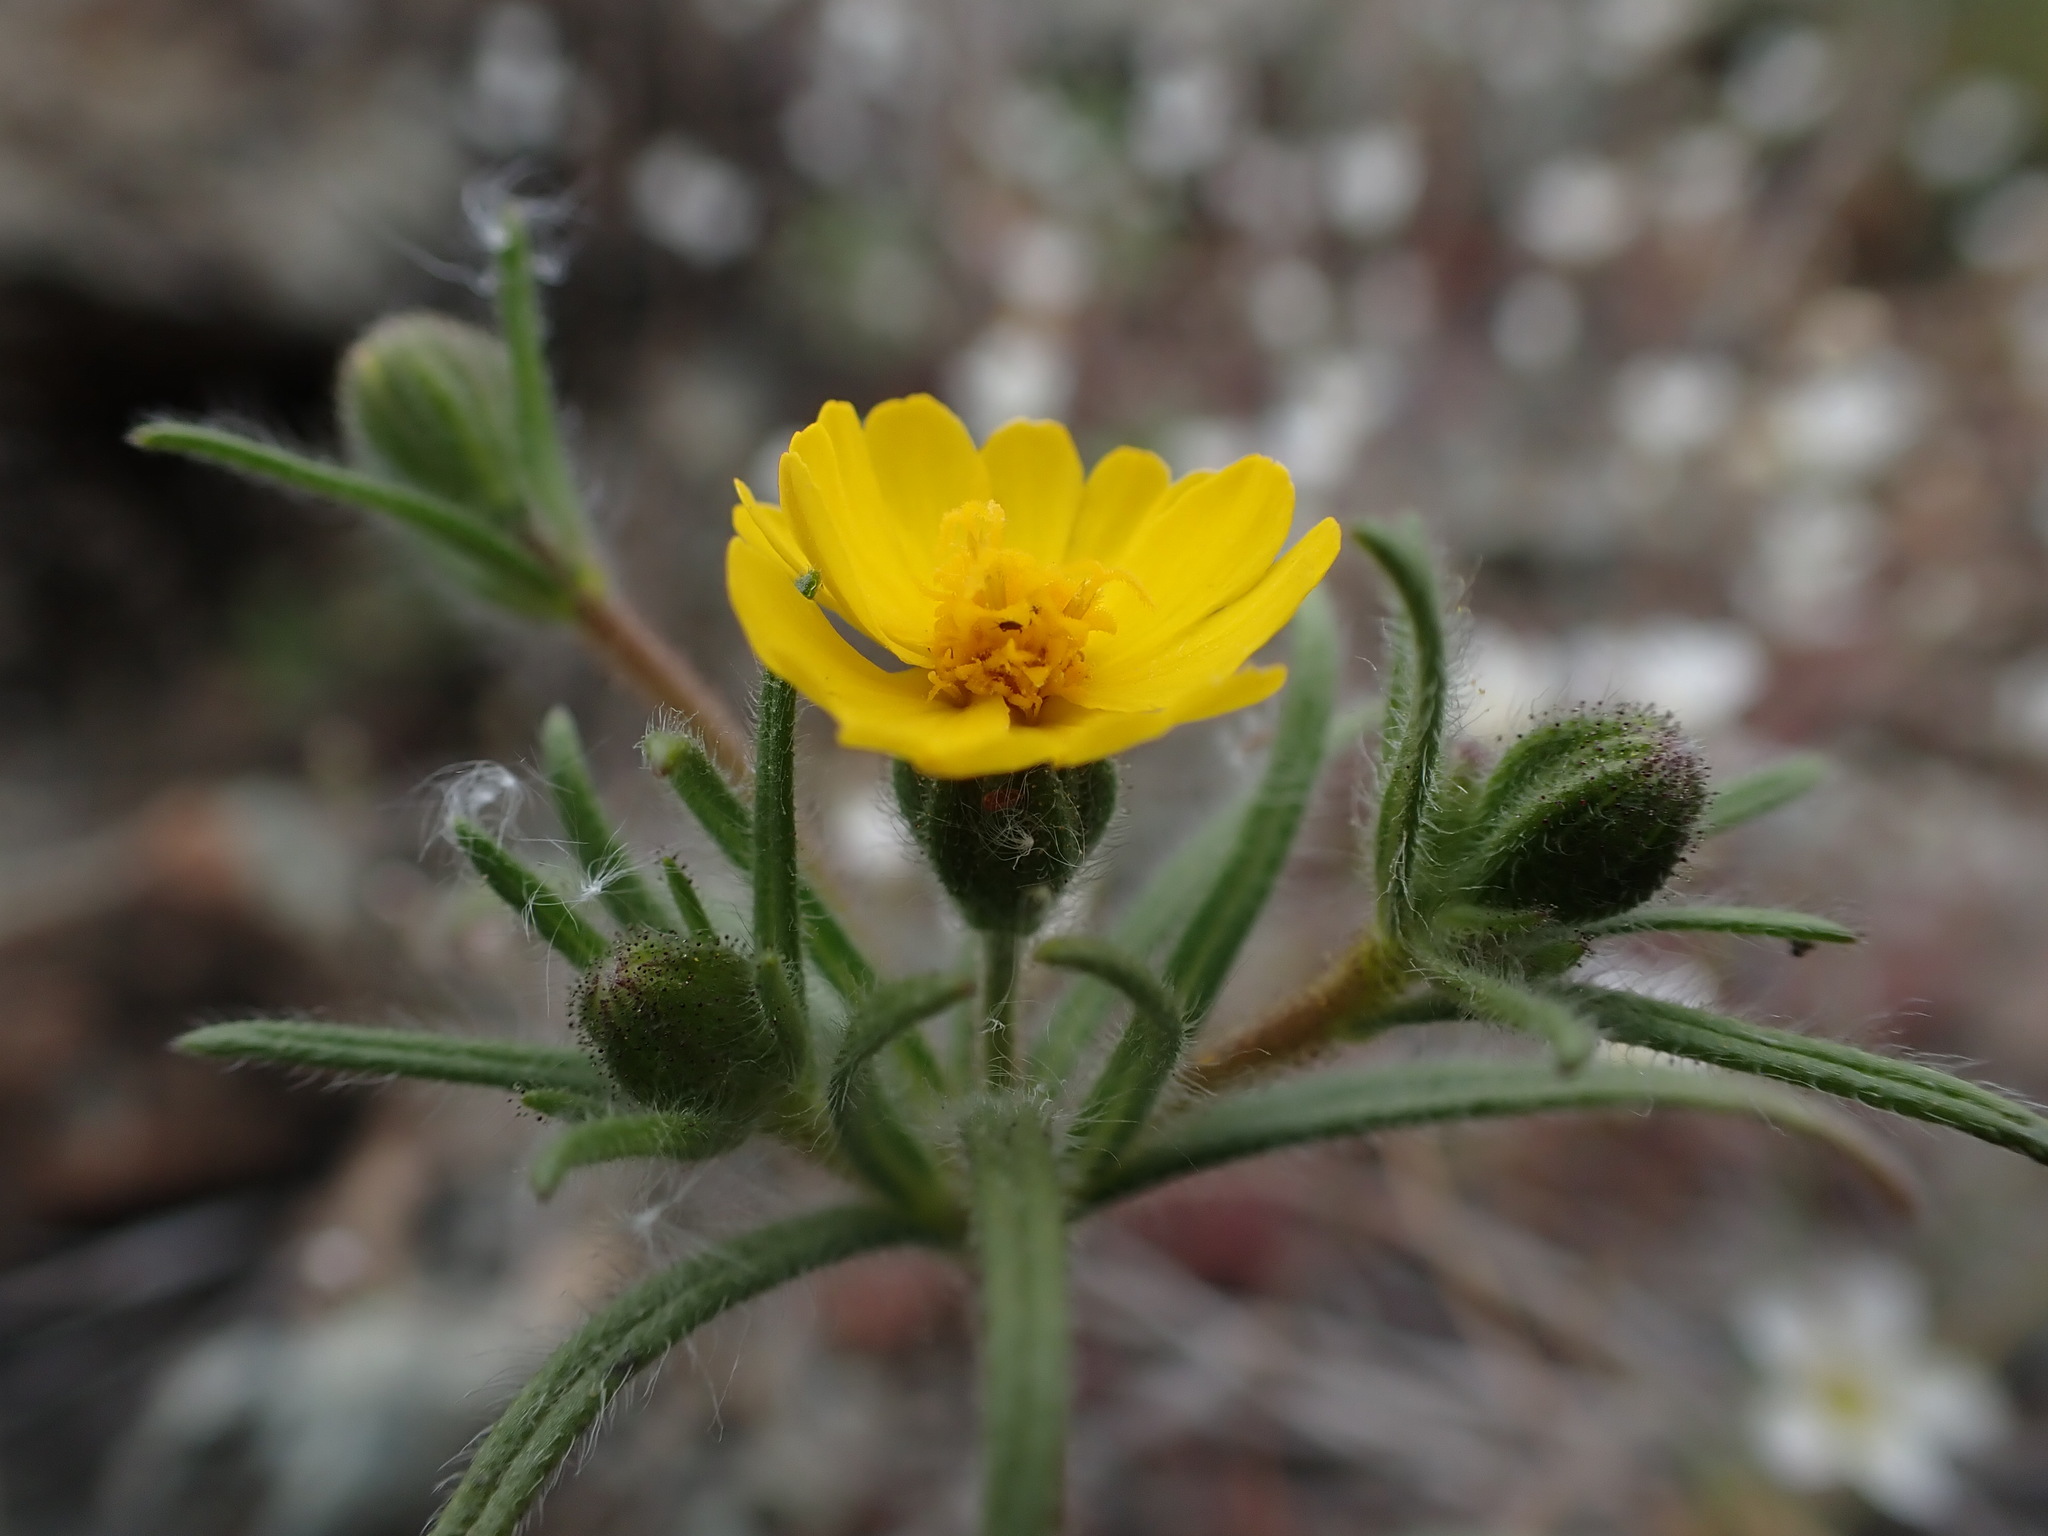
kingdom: Plantae
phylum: Tracheophyta
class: Magnoliopsida
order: Asterales
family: Asteraceae
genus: Harmonia
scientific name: Harmonia guggolziorum
